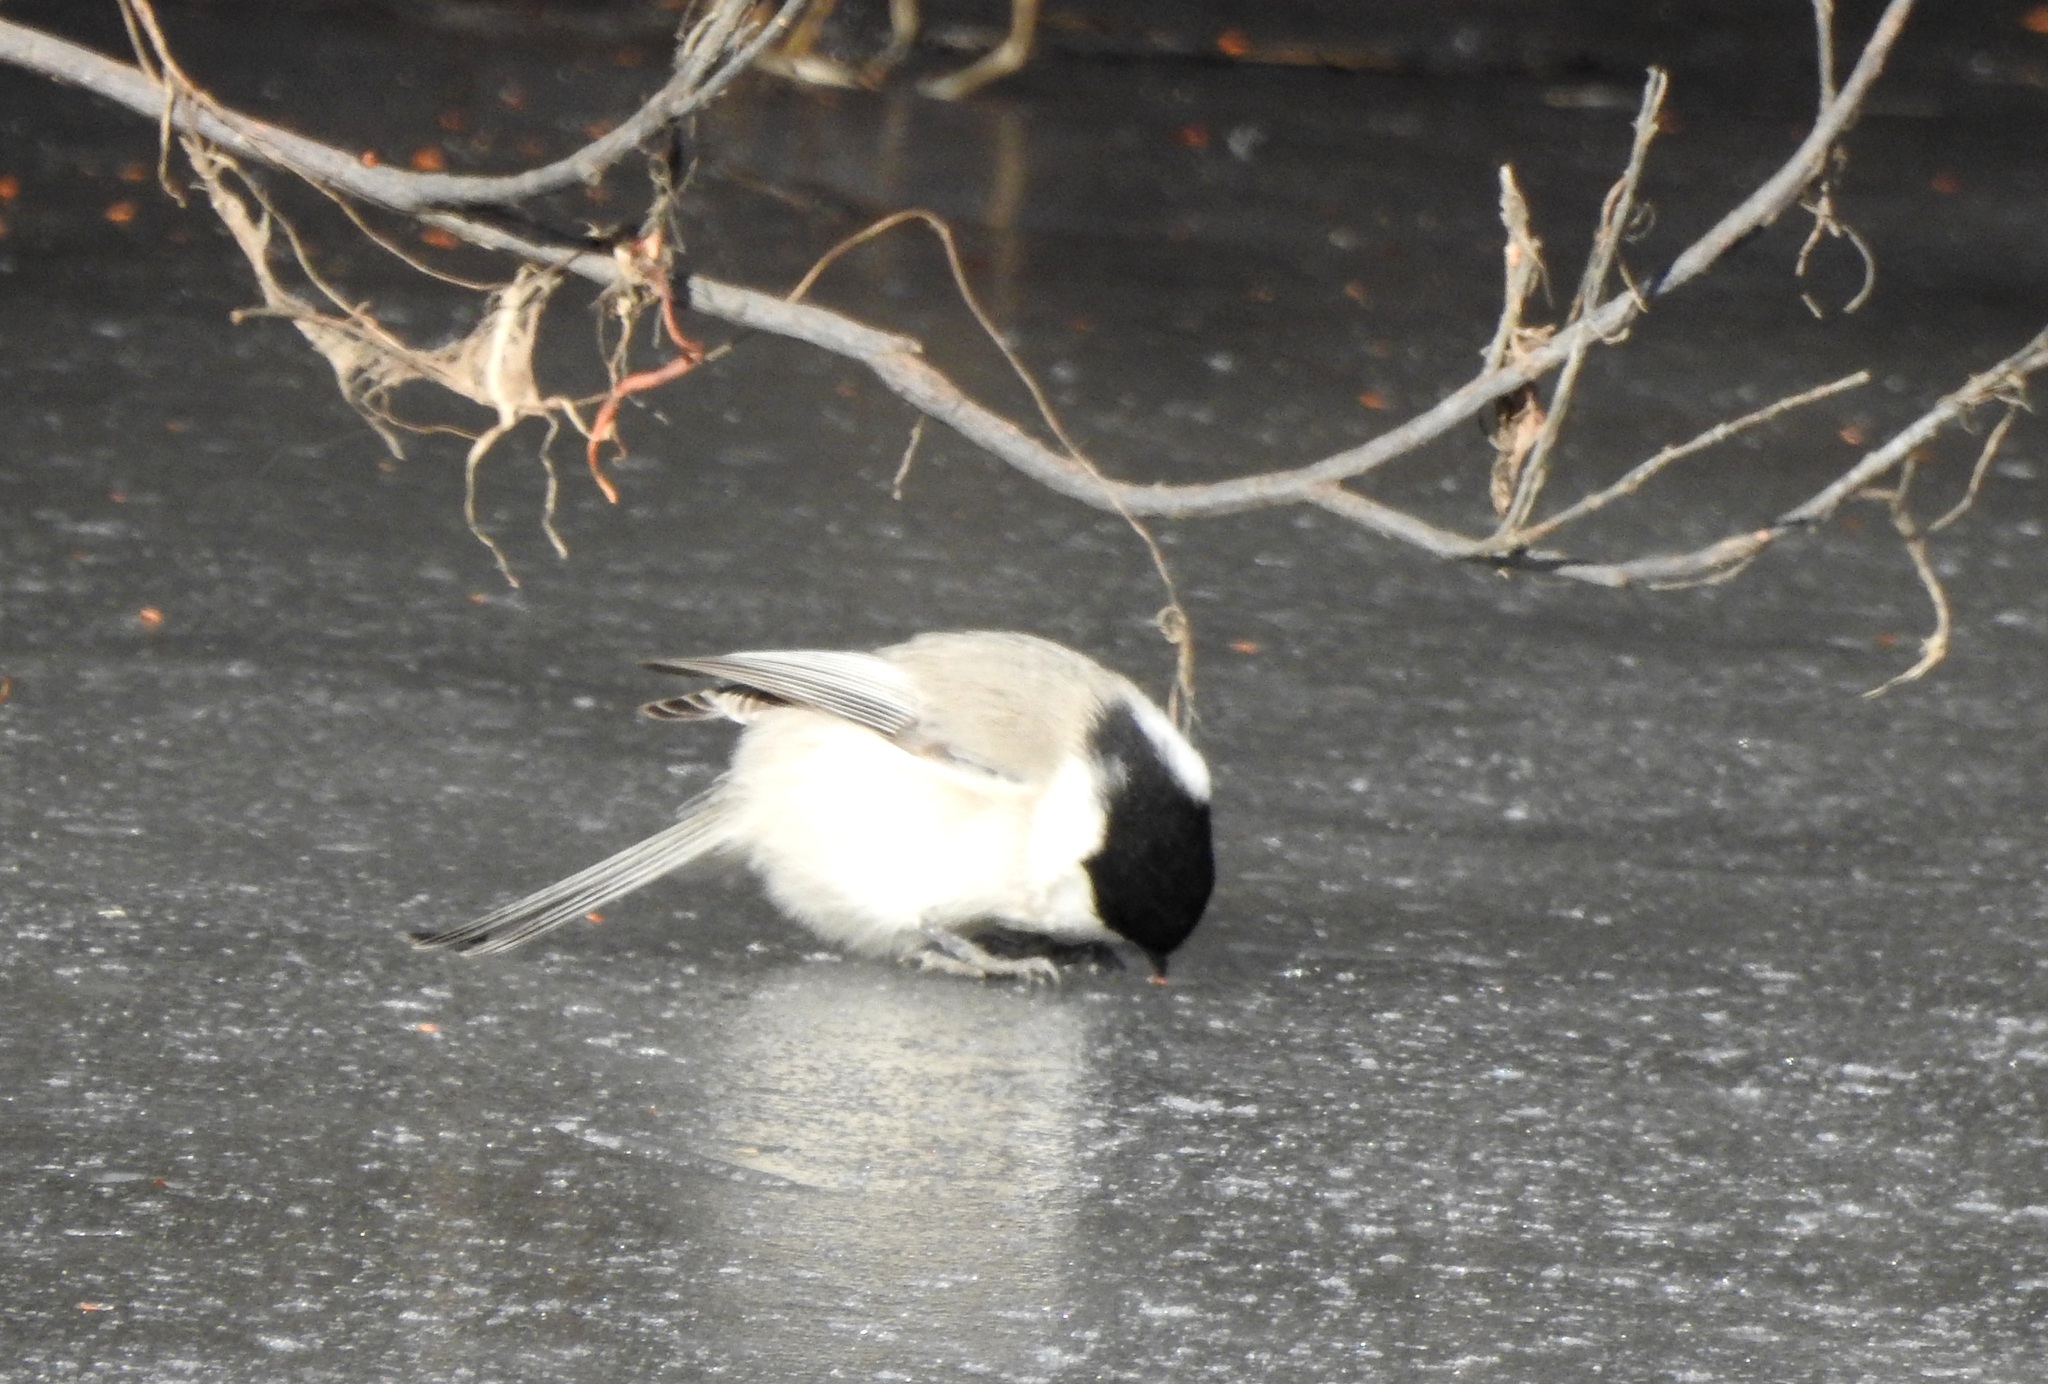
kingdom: Animalia
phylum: Chordata
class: Aves
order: Passeriformes
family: Paridae
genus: Poecile
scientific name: Poecile montanus
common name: Willow tit
